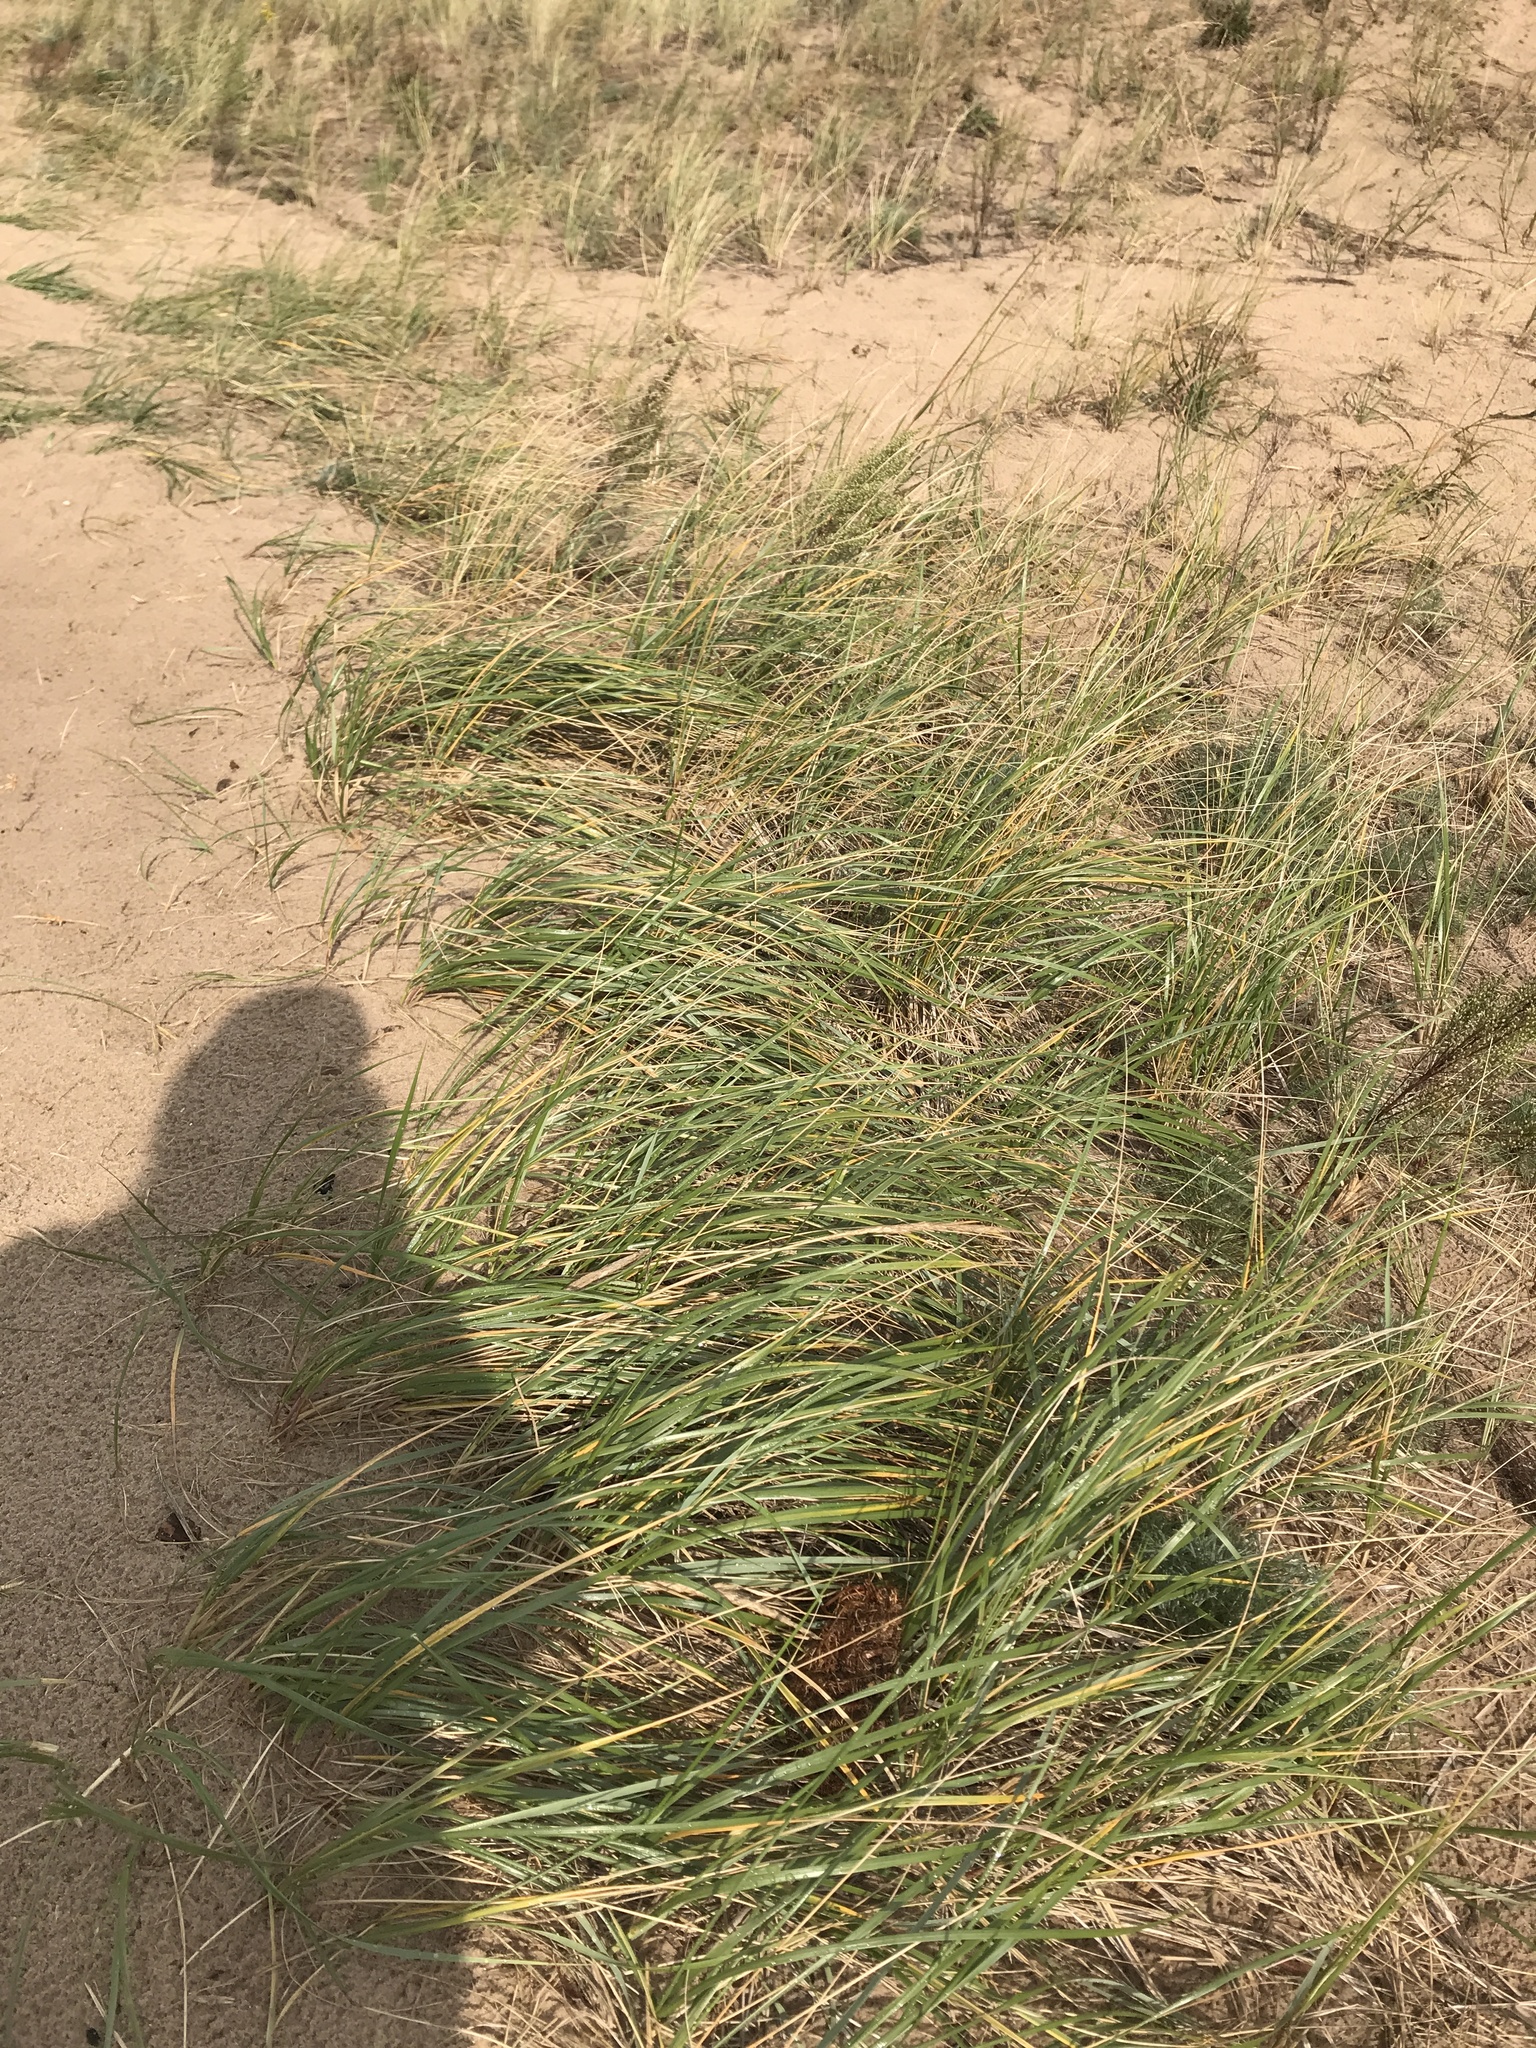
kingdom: Plantae
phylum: Tracheophyta
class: Liliopsida
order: Poales
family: Poaceae
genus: Calamagrostis
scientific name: Calamagrostis breviligulata
